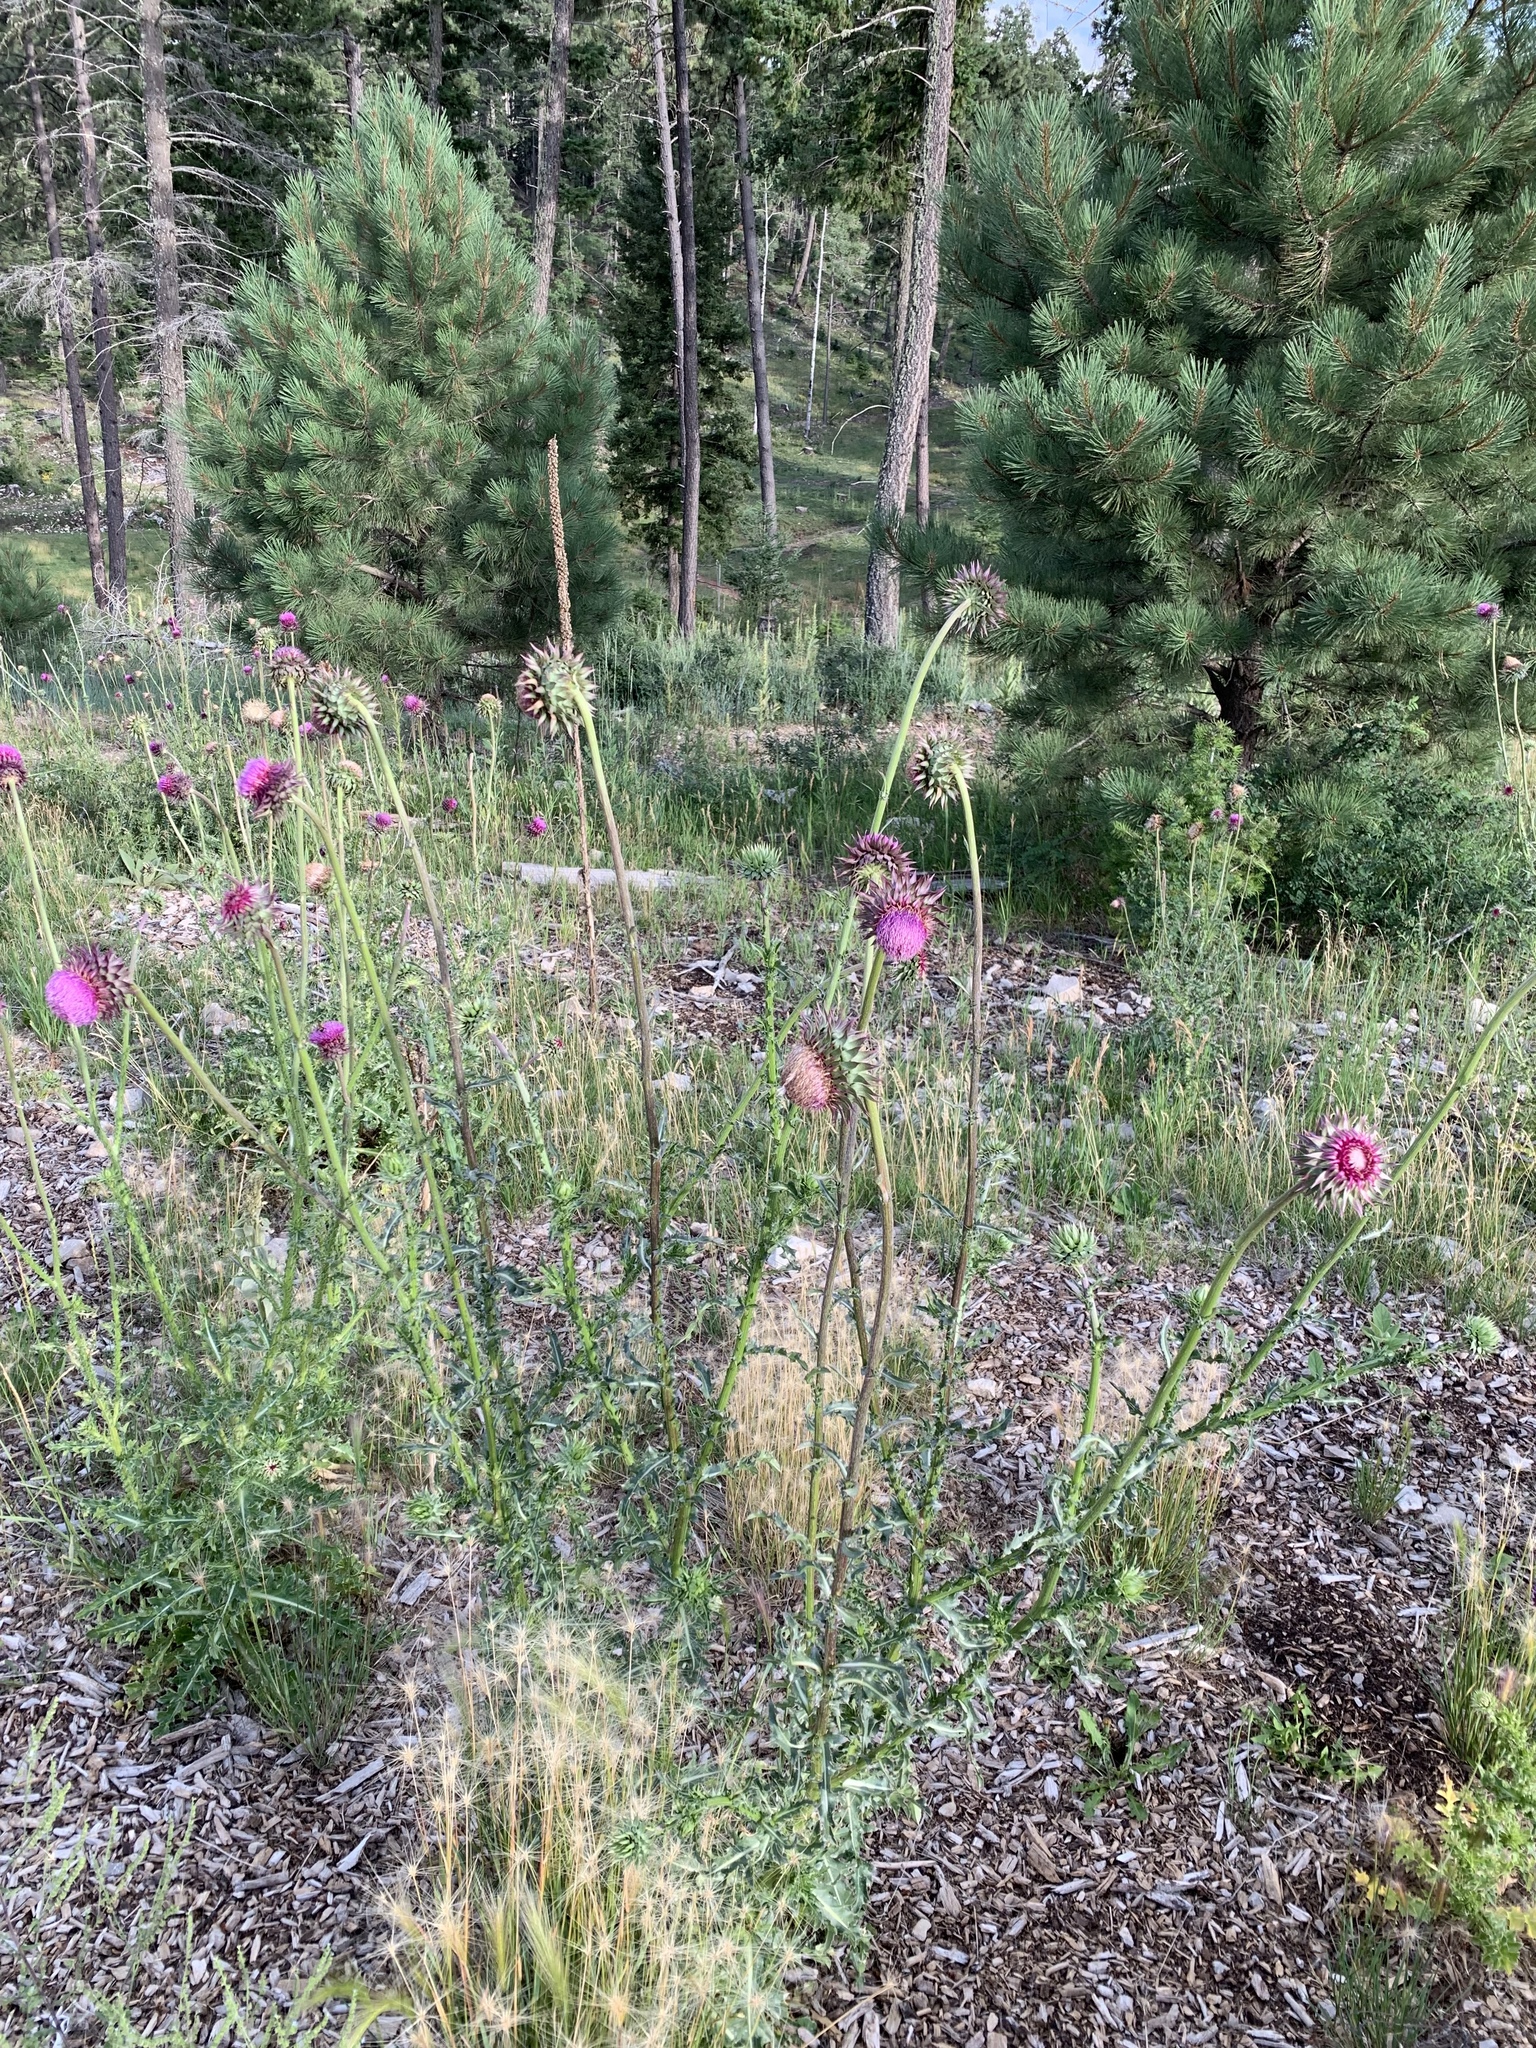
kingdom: Plantae
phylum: Tracheophyta
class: Magnoliopsida
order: Asterales
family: Asteraceae
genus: Carduus
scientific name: Carduus nutans
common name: Musk thistle
